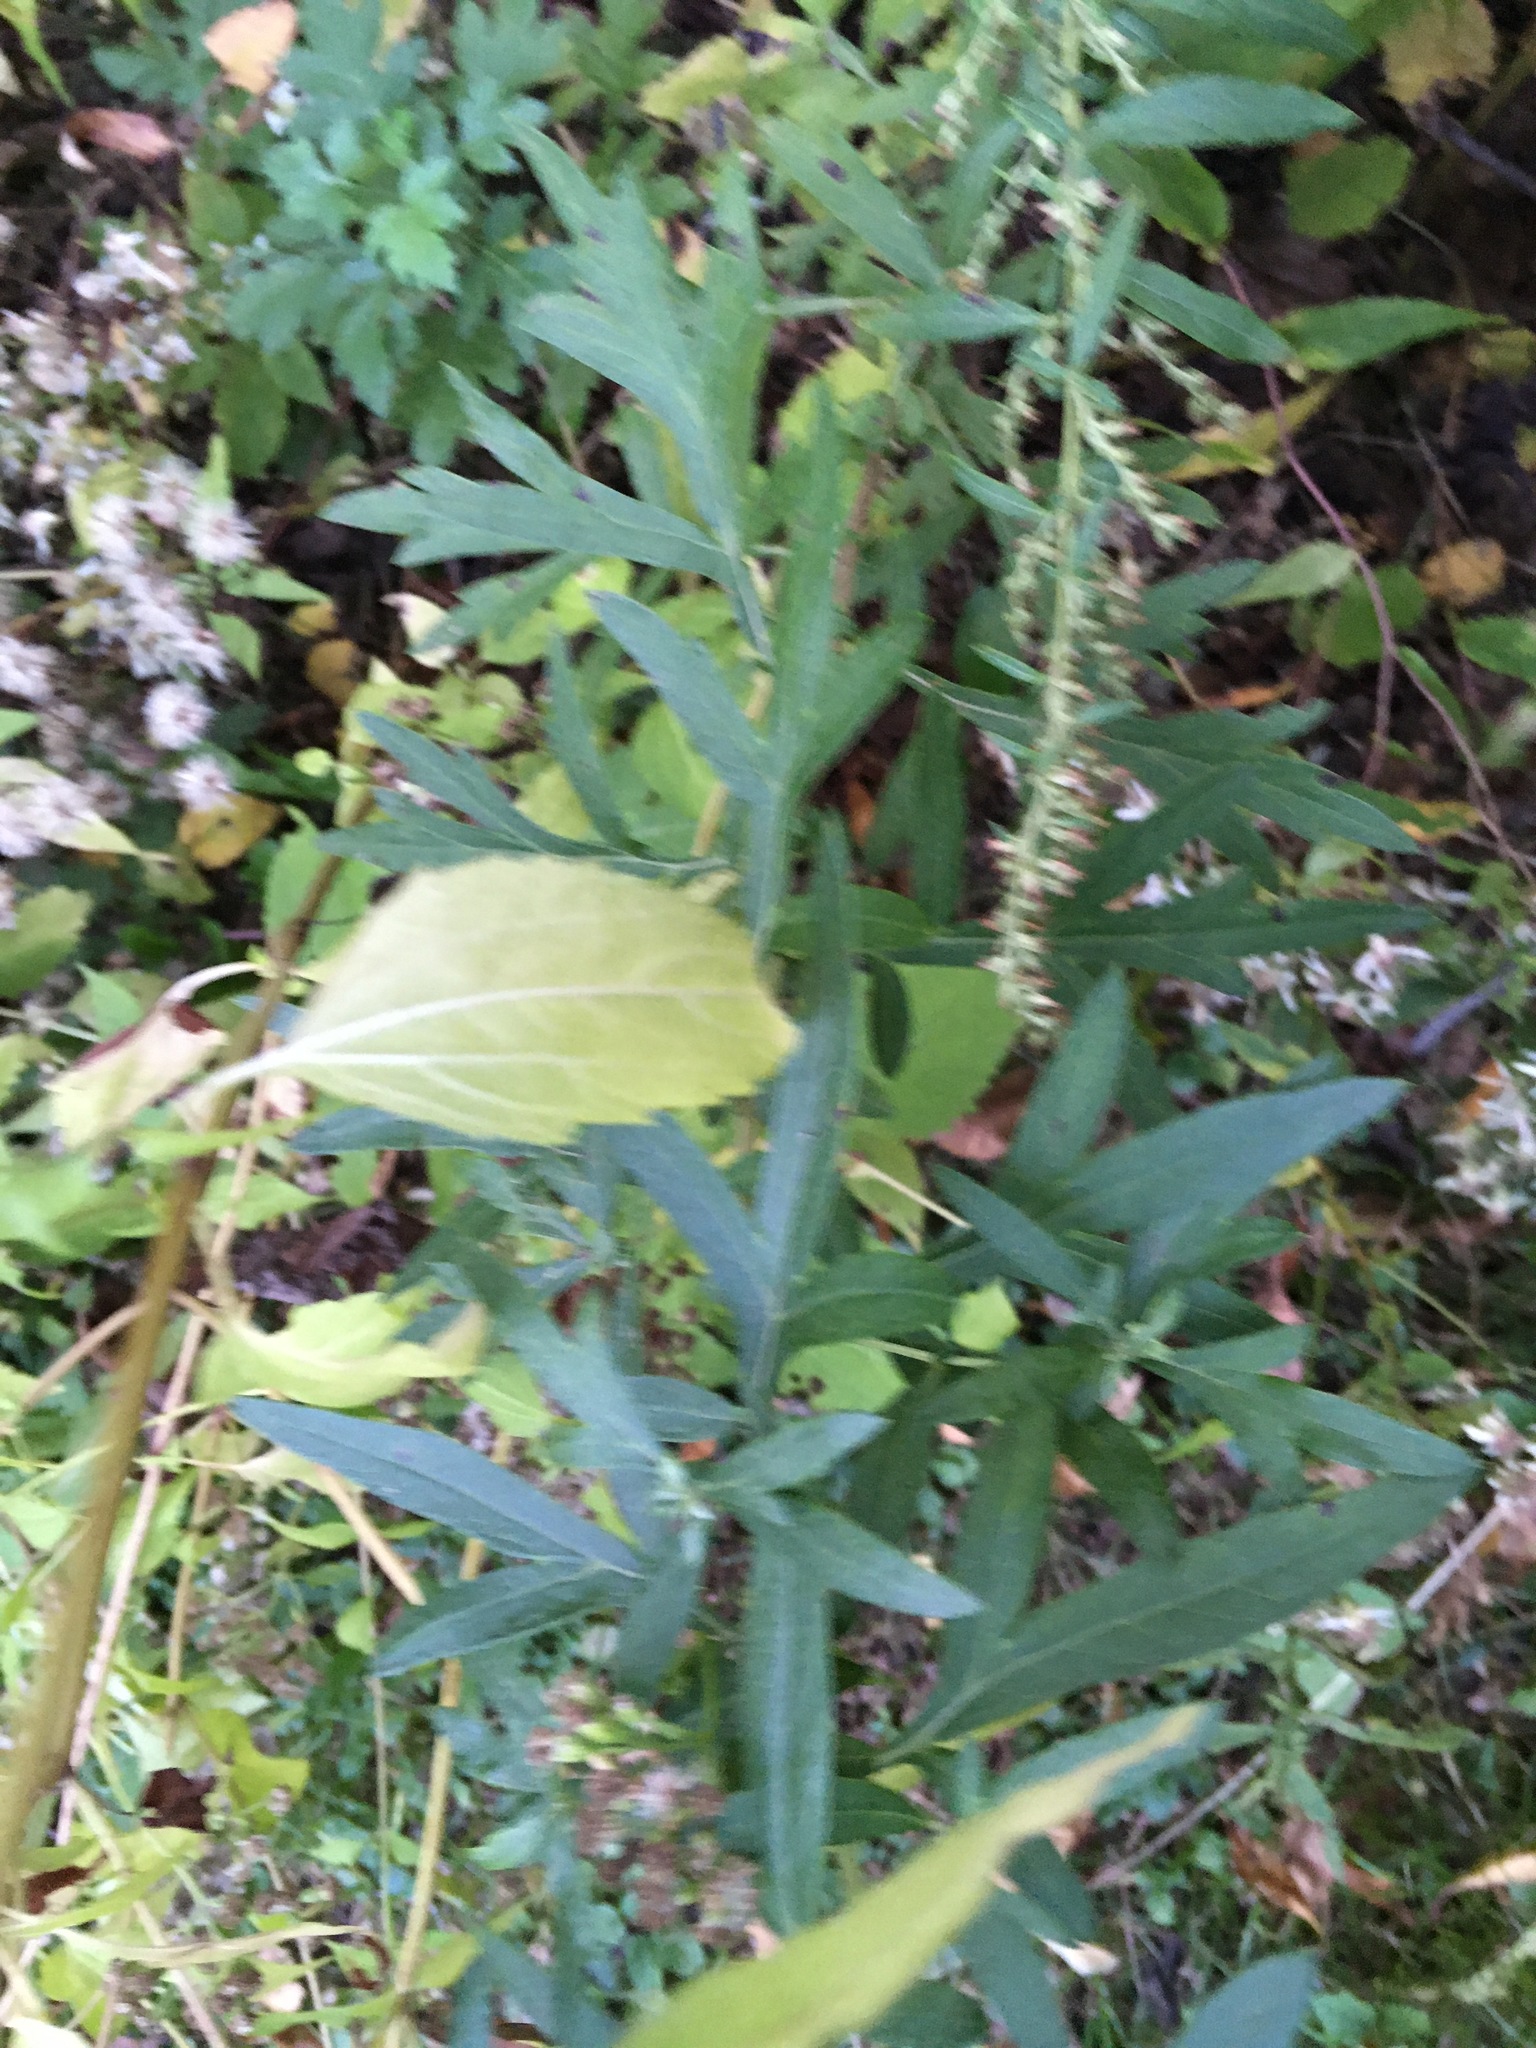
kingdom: Plantae
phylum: Tracheophyta
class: Magnoliopsida
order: Asterales
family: Asteraceae
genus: Artemisia
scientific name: Artemisia vulgaris
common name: Mugwort
